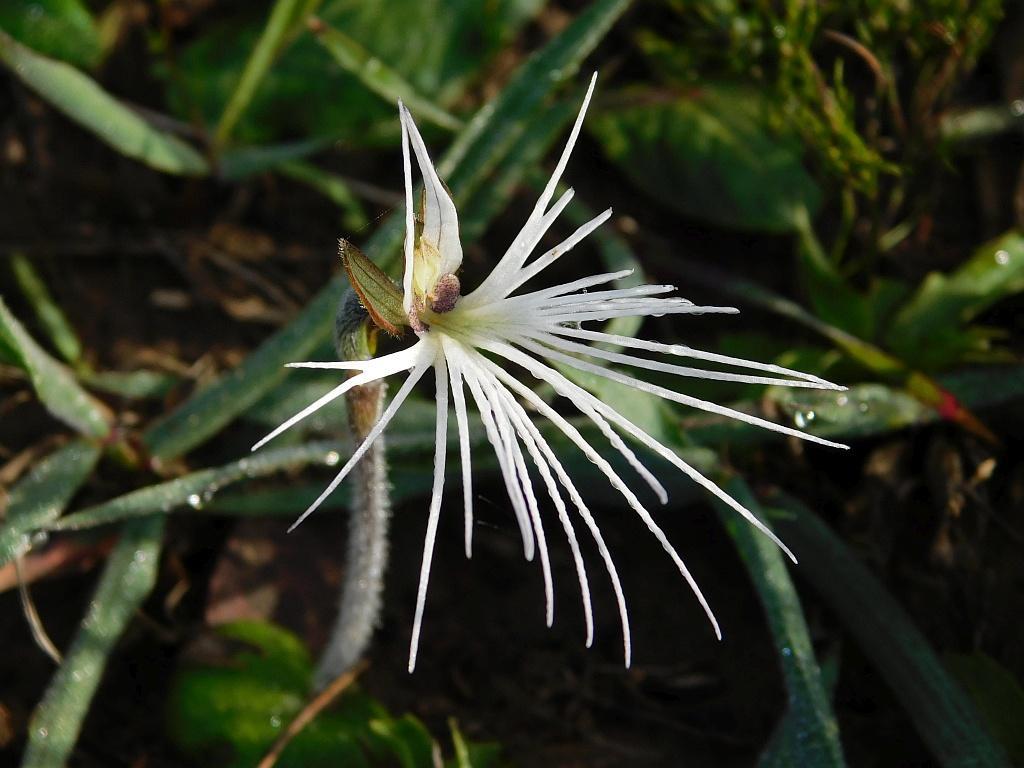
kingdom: Plantae
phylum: Tracheophyta
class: Liliopsida
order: Asparagales
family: Orchidaceae
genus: Holothrix
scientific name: Holothrix burmanniana
